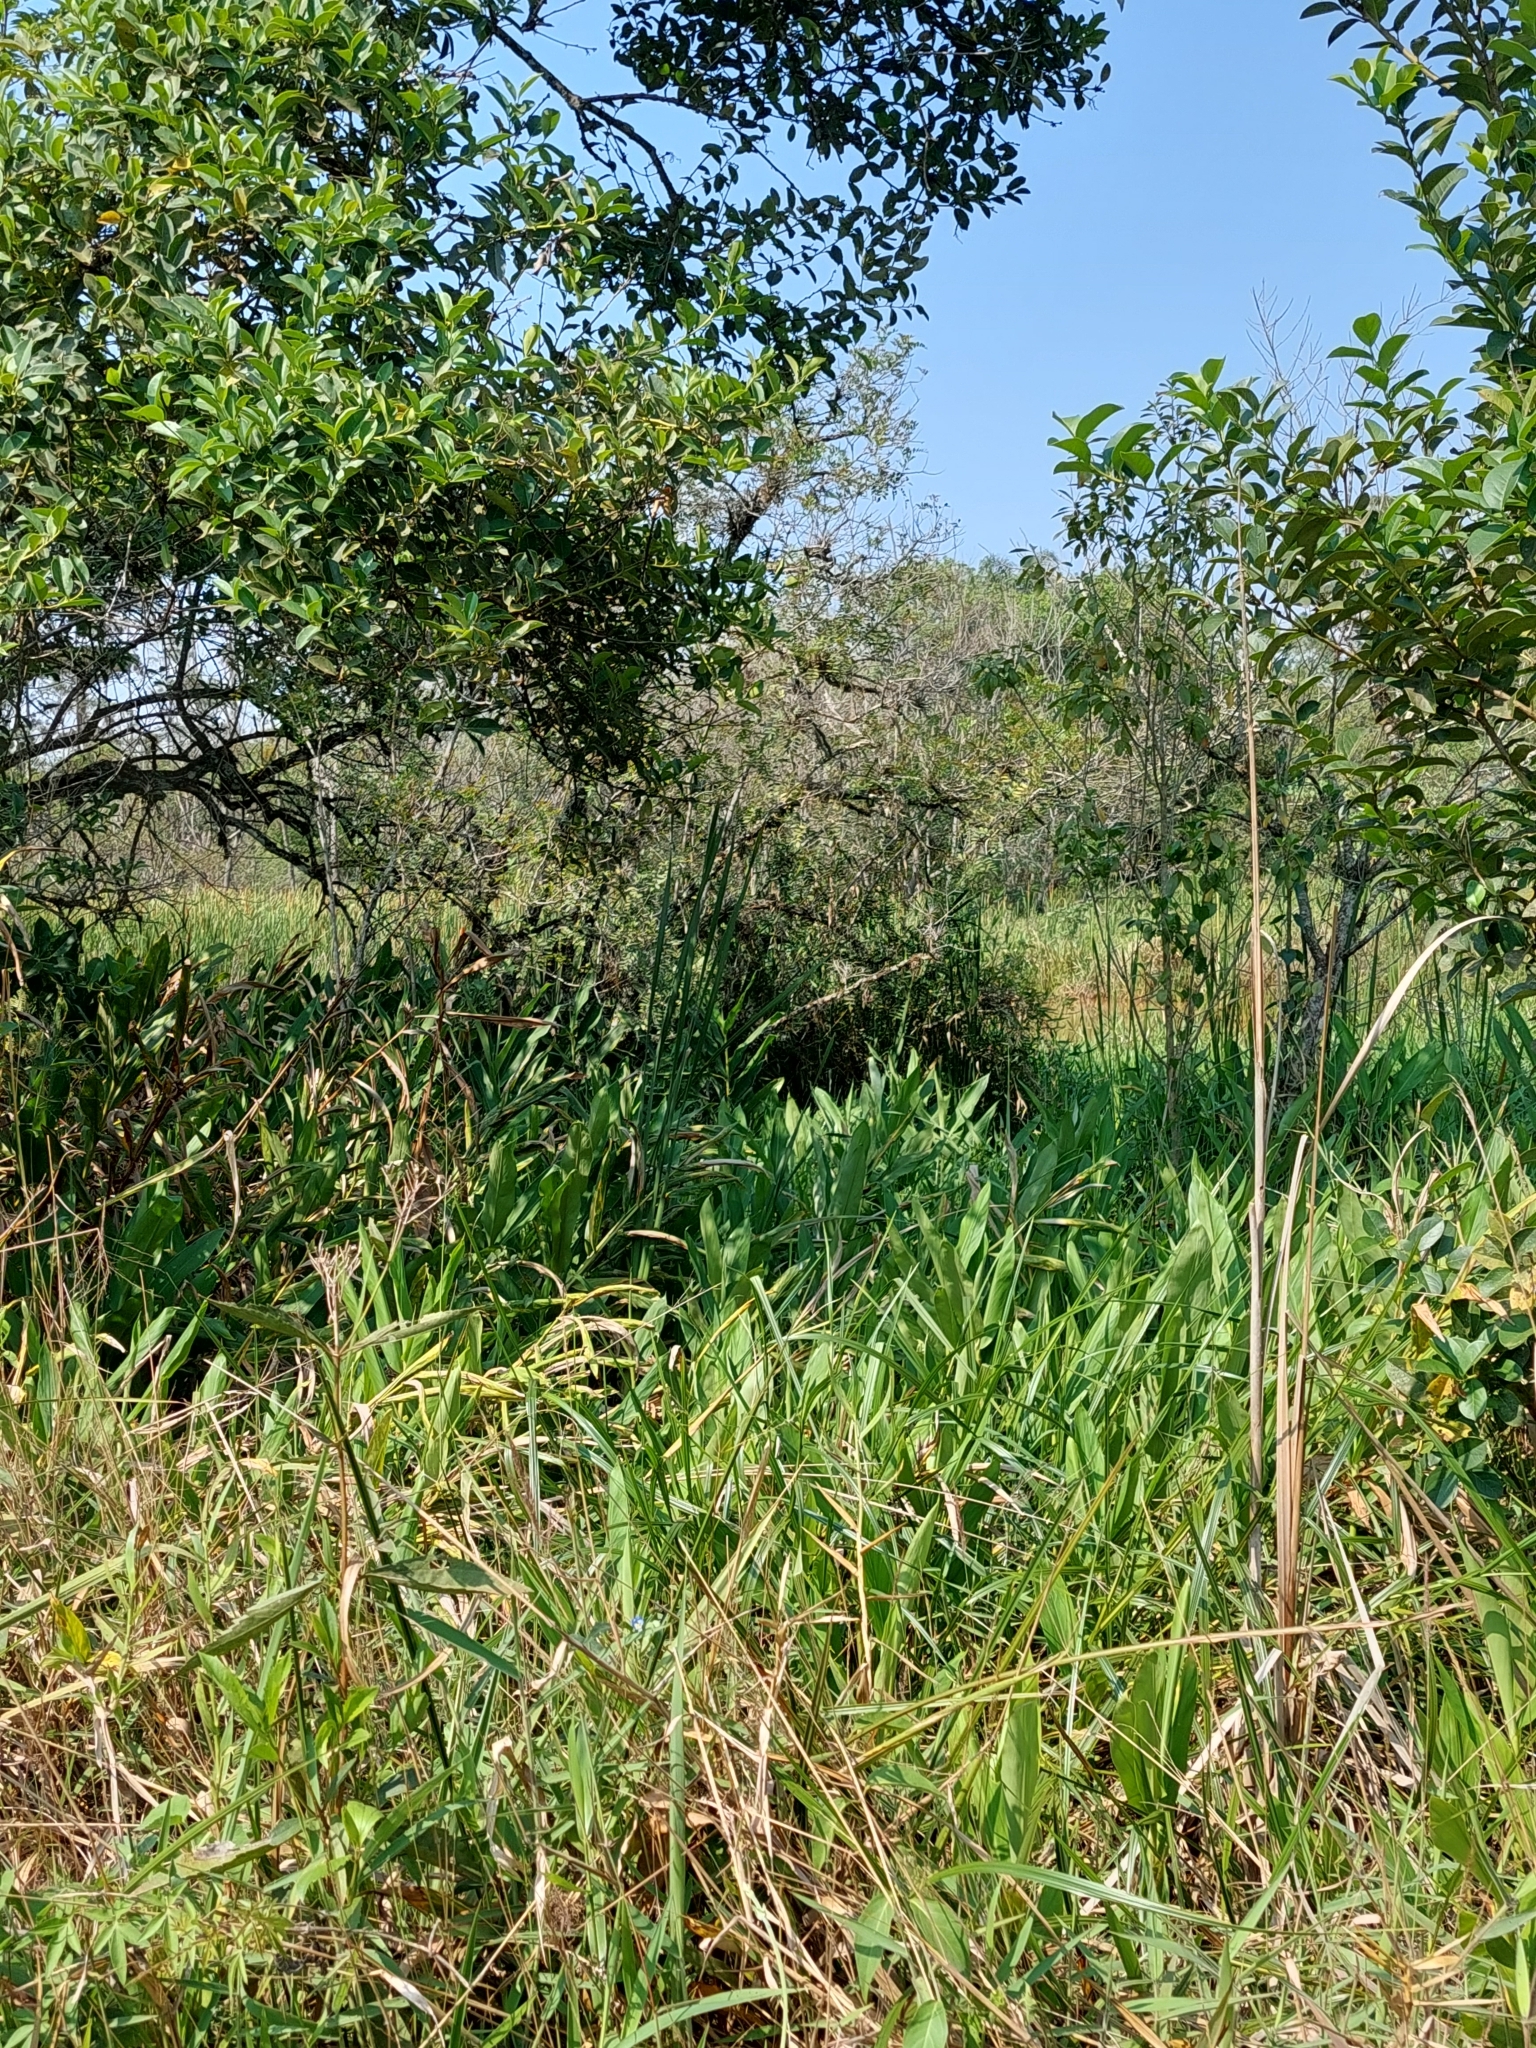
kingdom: Plantae
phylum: Tracheophyta
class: Liliopsida
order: Zingiberales
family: Zingiberaceae
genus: Hedychium
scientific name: Hedychium coronarium
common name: White garland-lily
